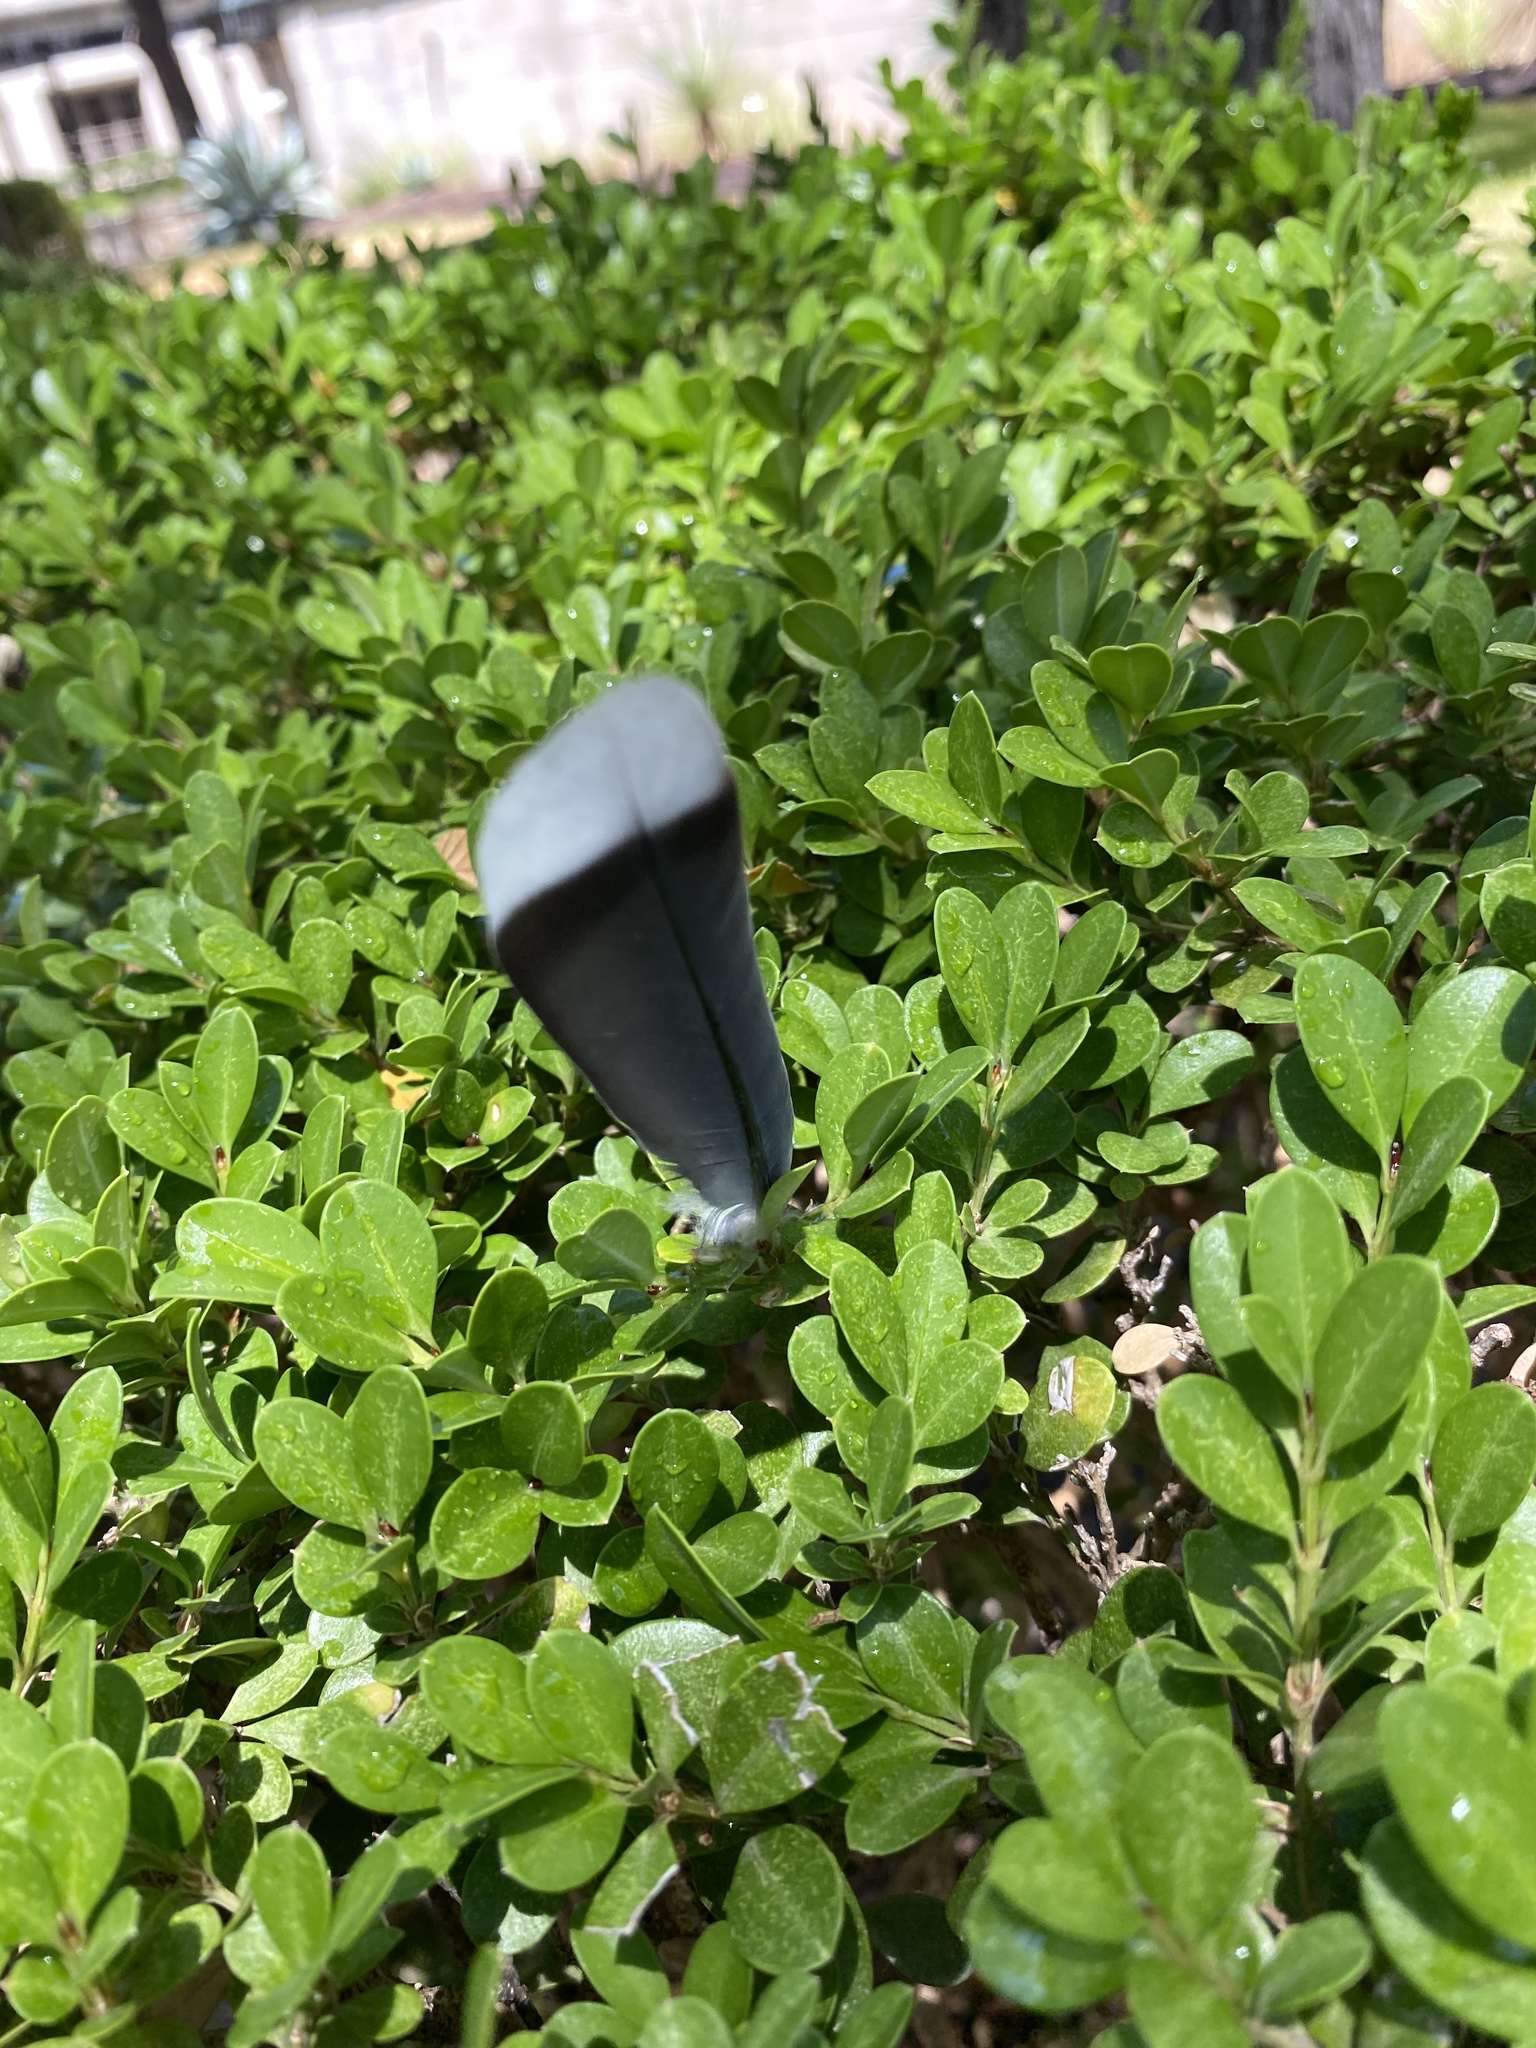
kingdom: Animalia
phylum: Chordata
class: Aves
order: Columbiformes
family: Columbidae
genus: Zenaida
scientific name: Zenaida asiatica
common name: White-winged dove
